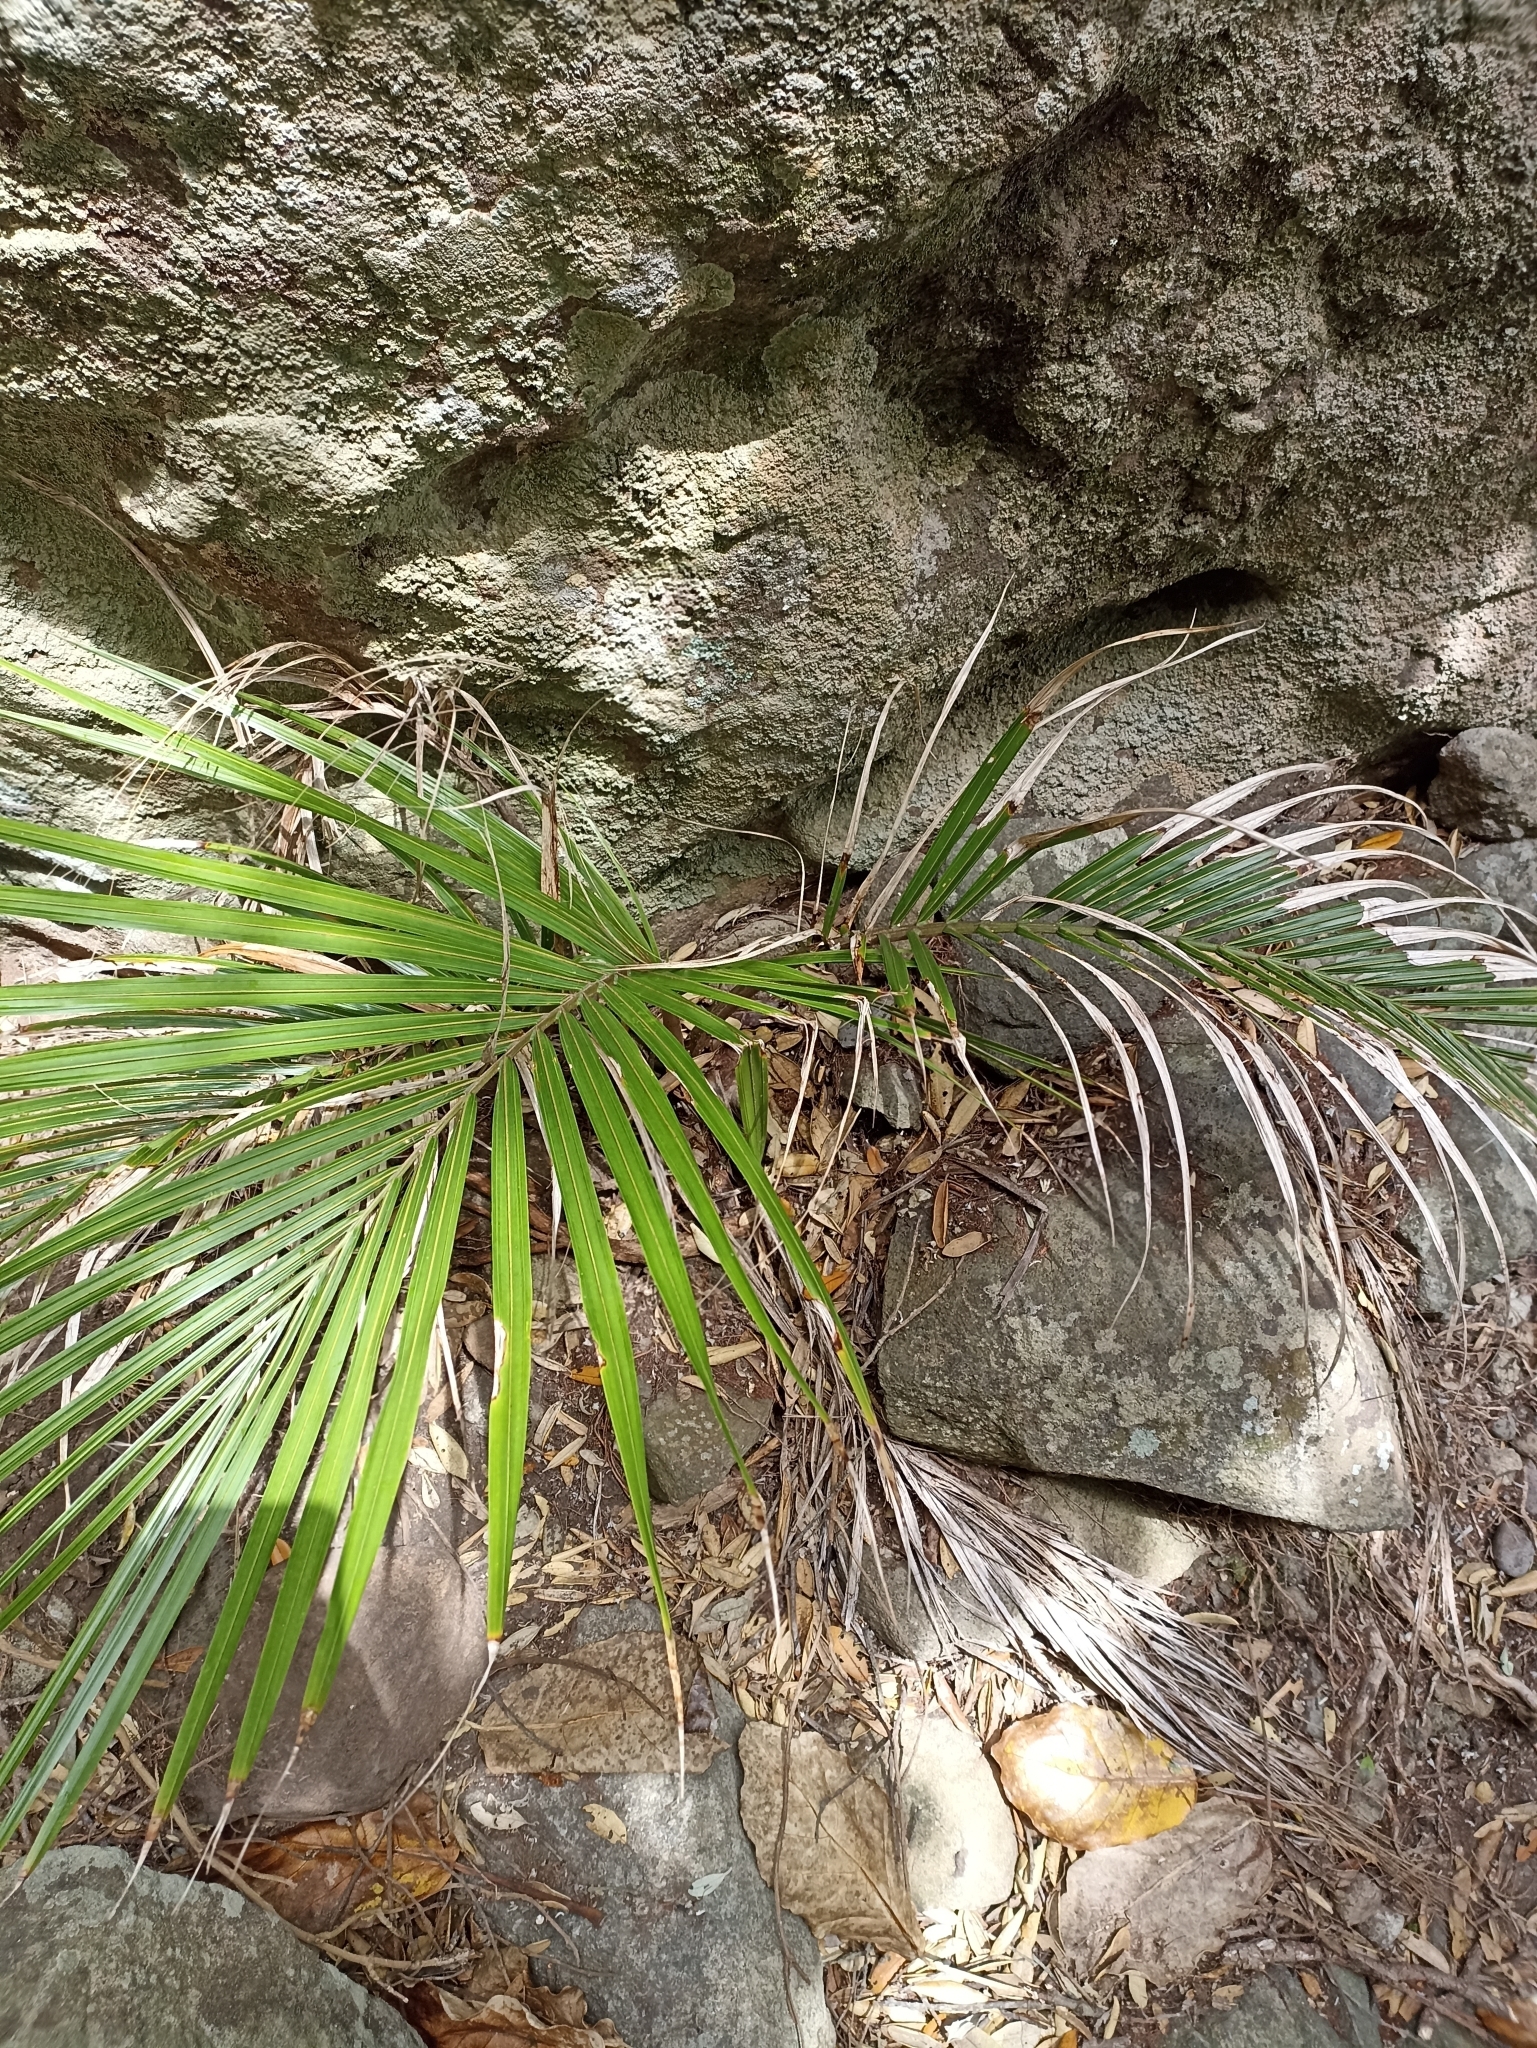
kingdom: Plantae
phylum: Tracheophyta
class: Liliopsida
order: Arecales
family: Arecaceae
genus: Rhopalostylis
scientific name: Rhopalostylis sapida
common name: Feather-duster palm
